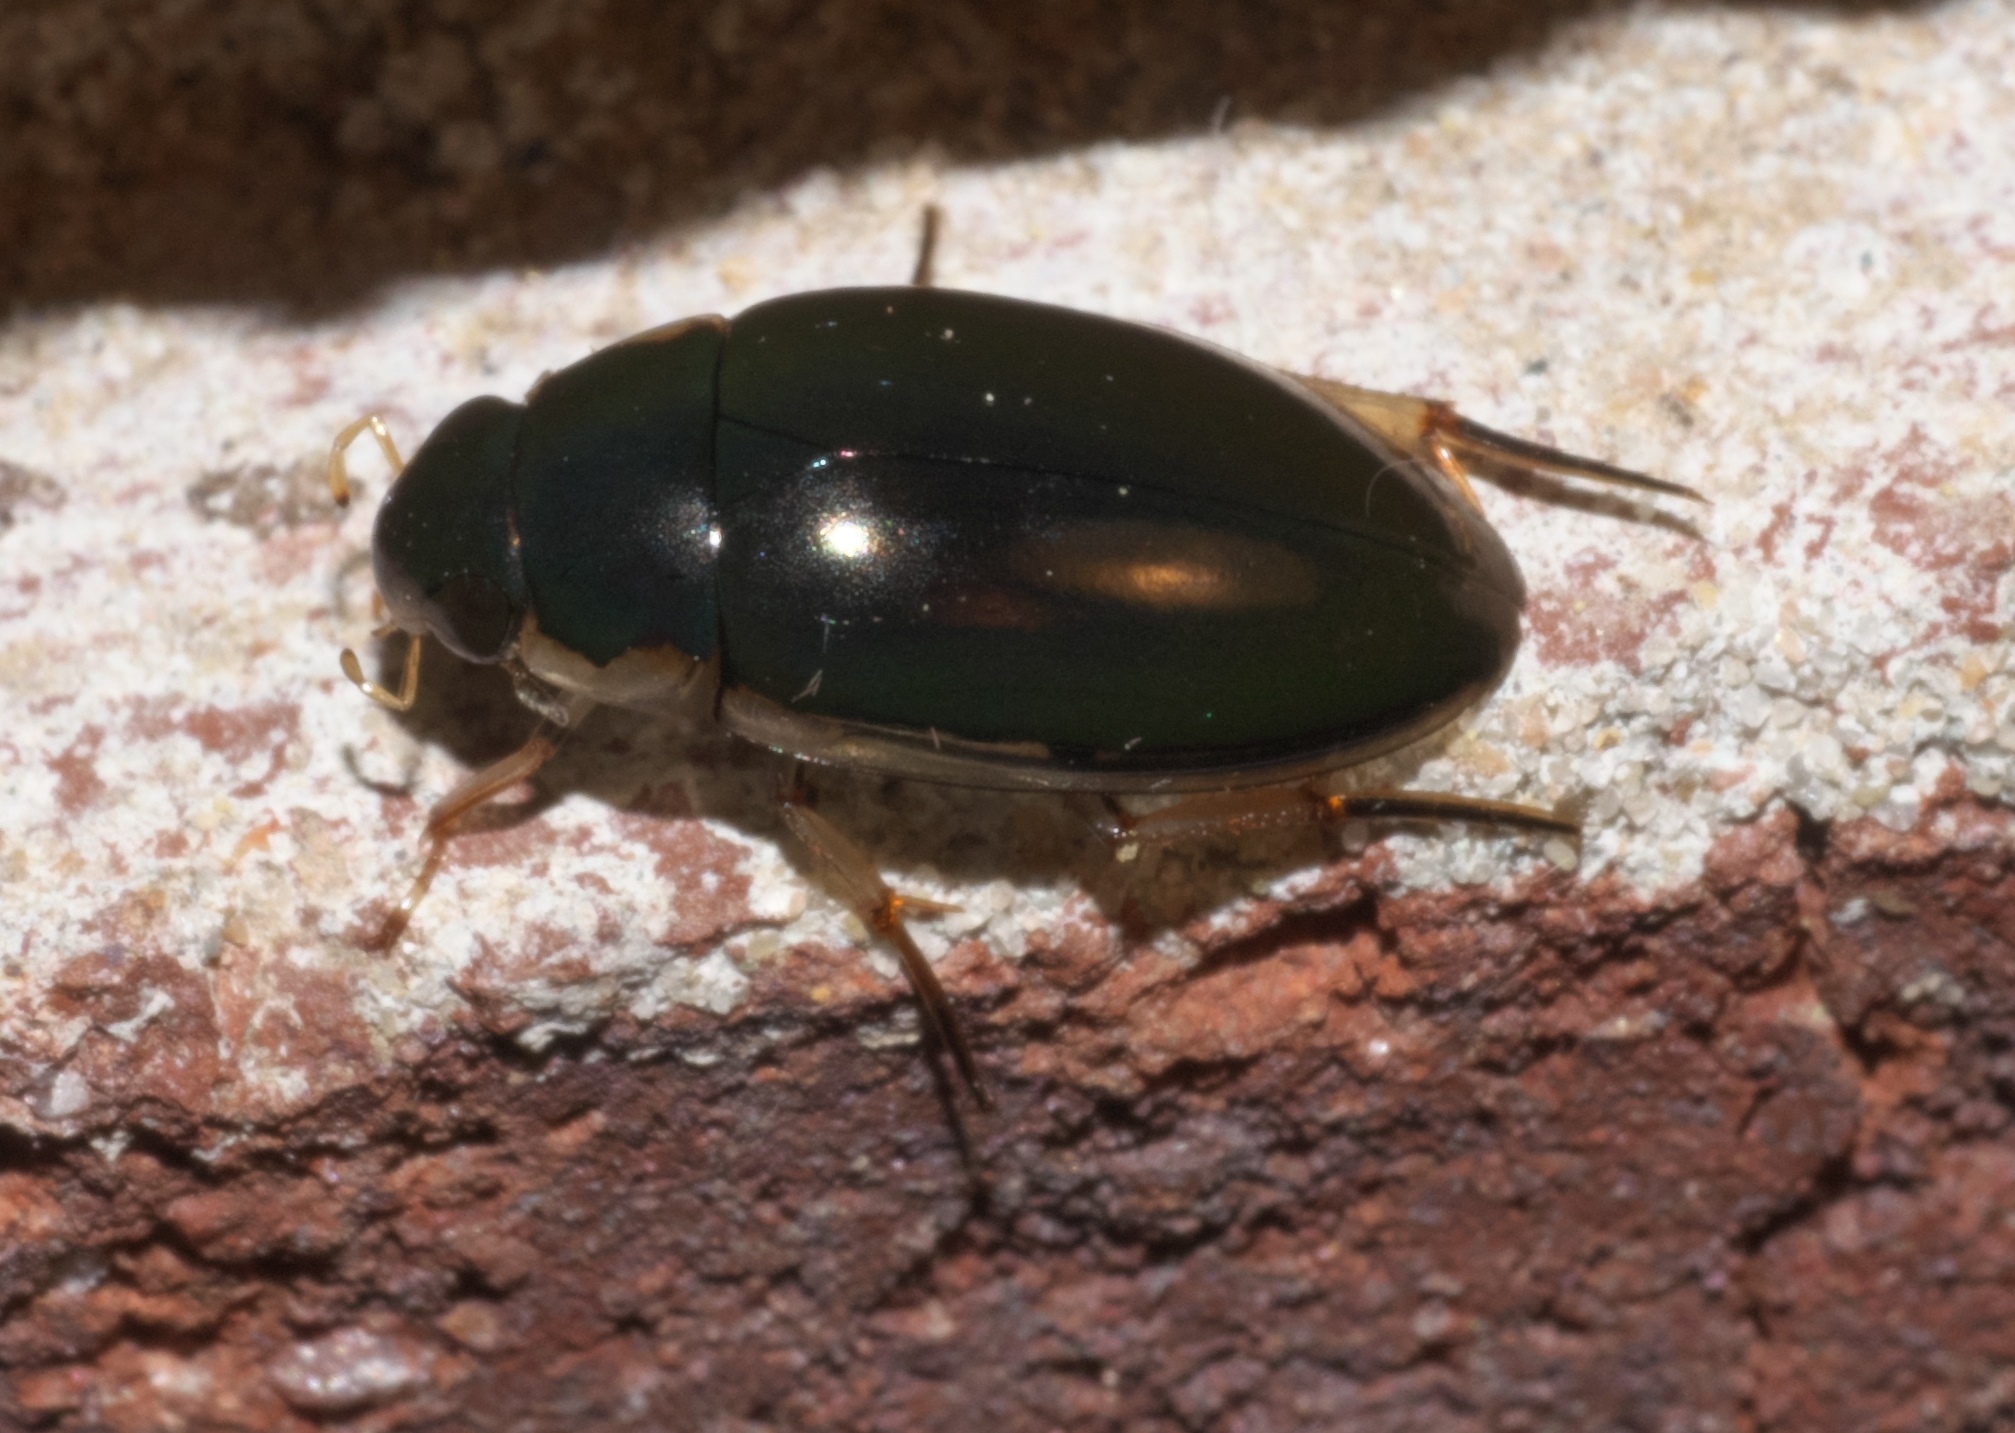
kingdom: Animalia
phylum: Arthropoda
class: Insecta
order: Coleoptera
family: Hydrophilidae
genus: Tropisternus
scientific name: Tropisternus lateralis
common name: Lateral-banded water scavenger beetle
